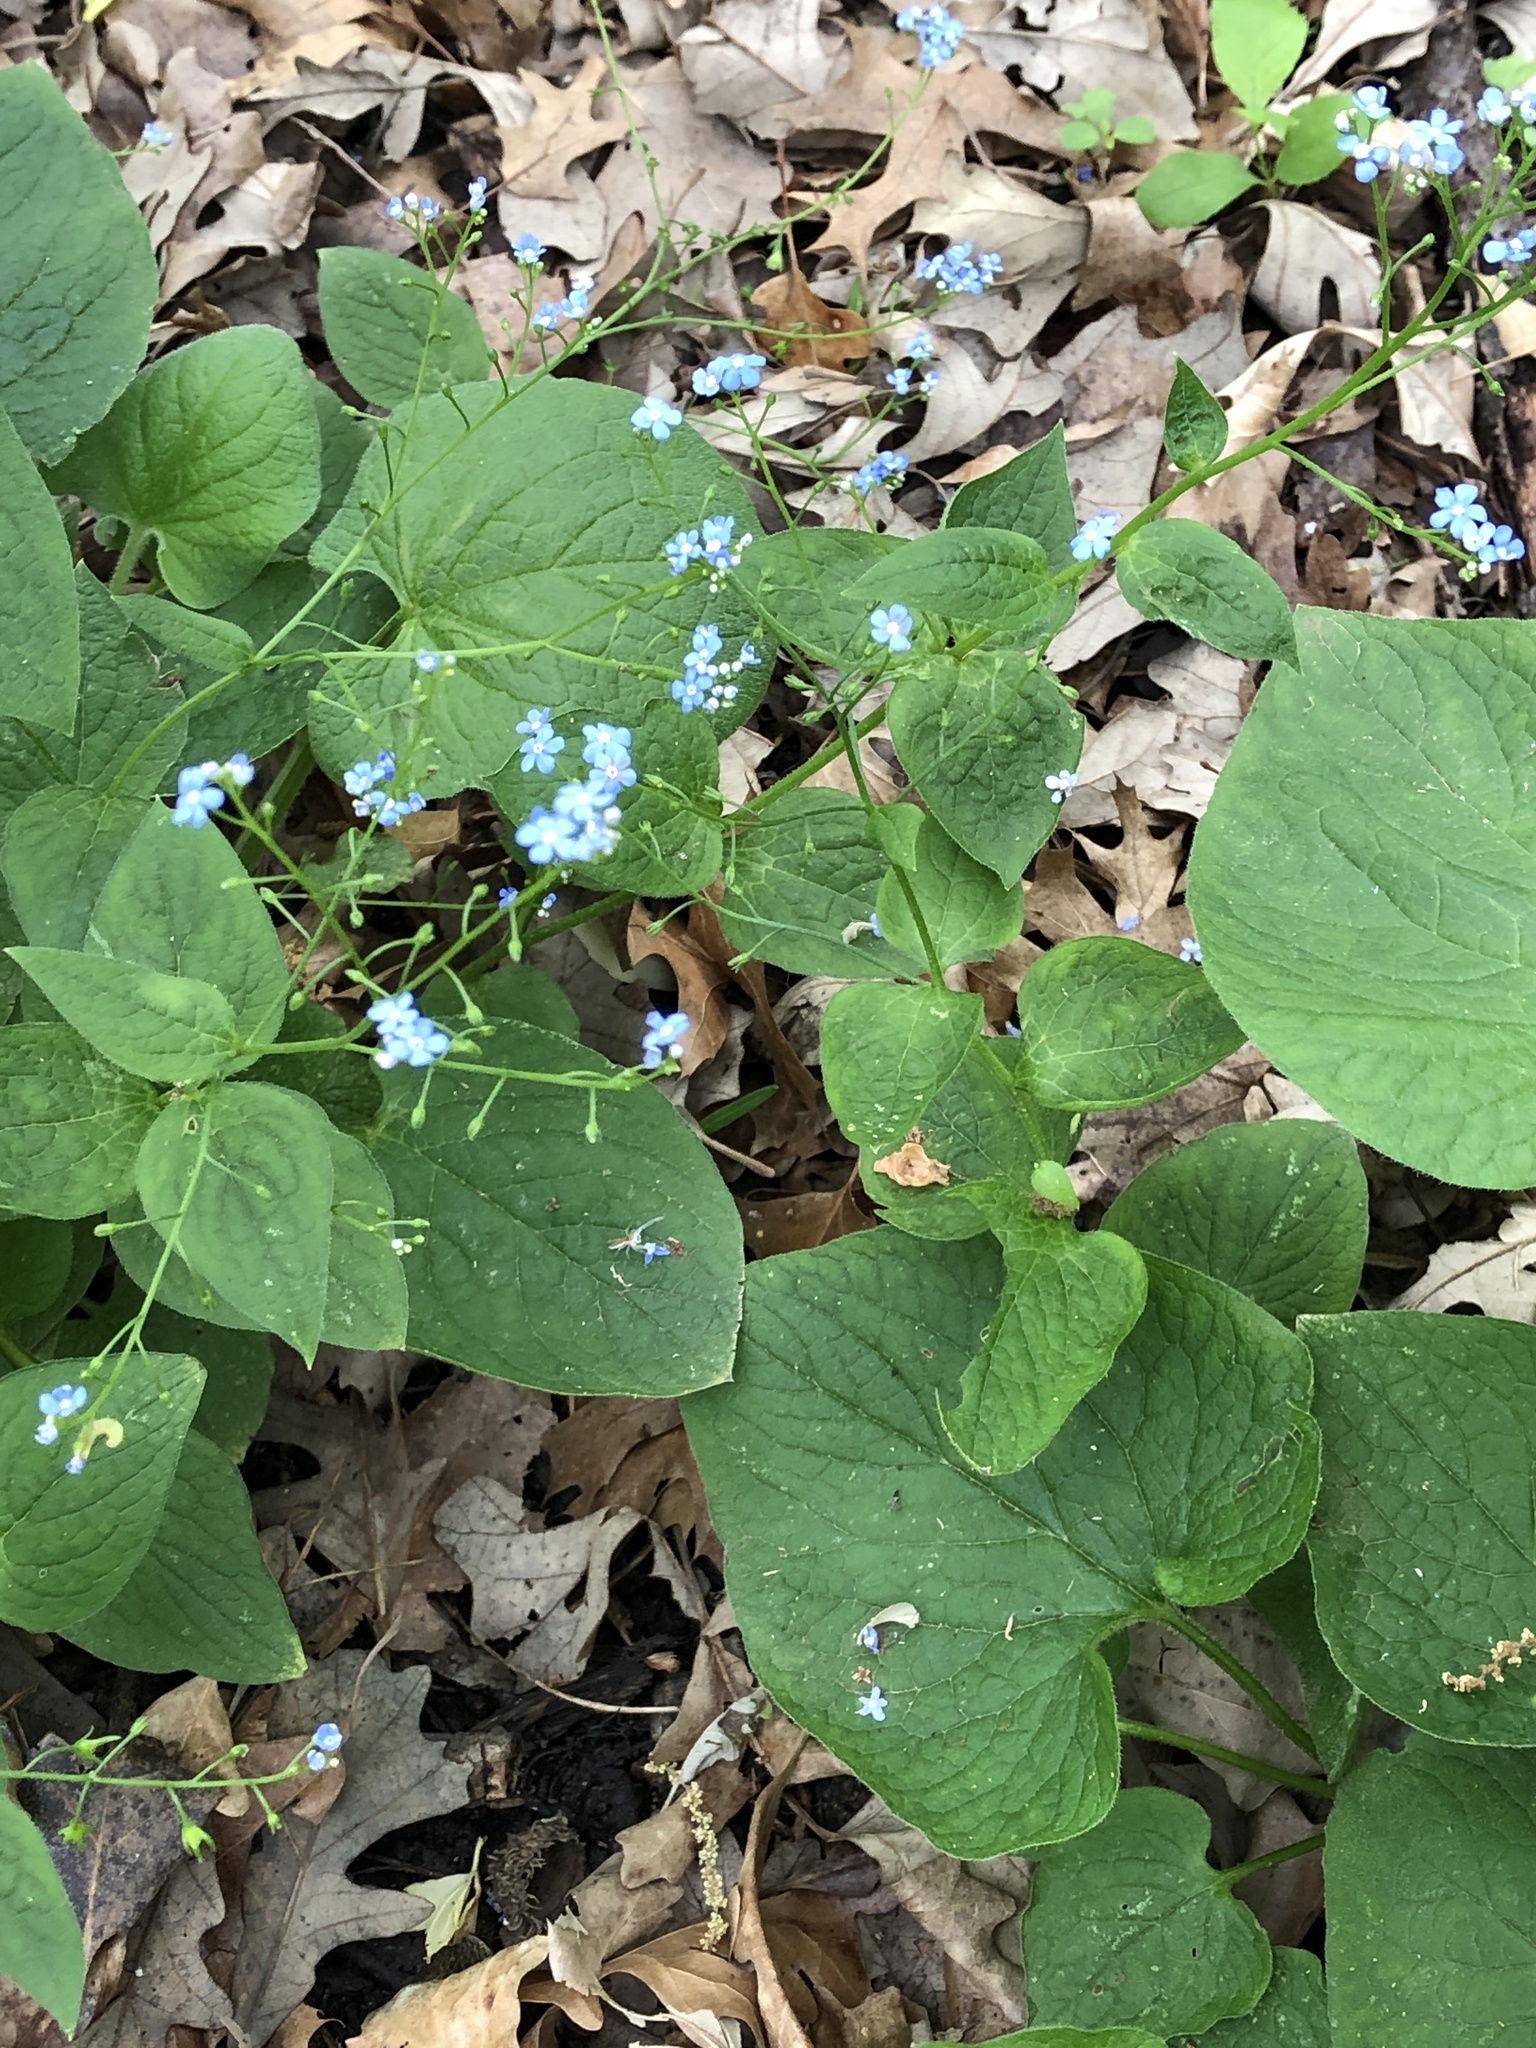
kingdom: Plantae
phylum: Tracheophyta
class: Magnoliopsida
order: Boraginales
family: Boraginaceae
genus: Brunnera
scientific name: Brunnera macrophylla
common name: Great forget-me-not
